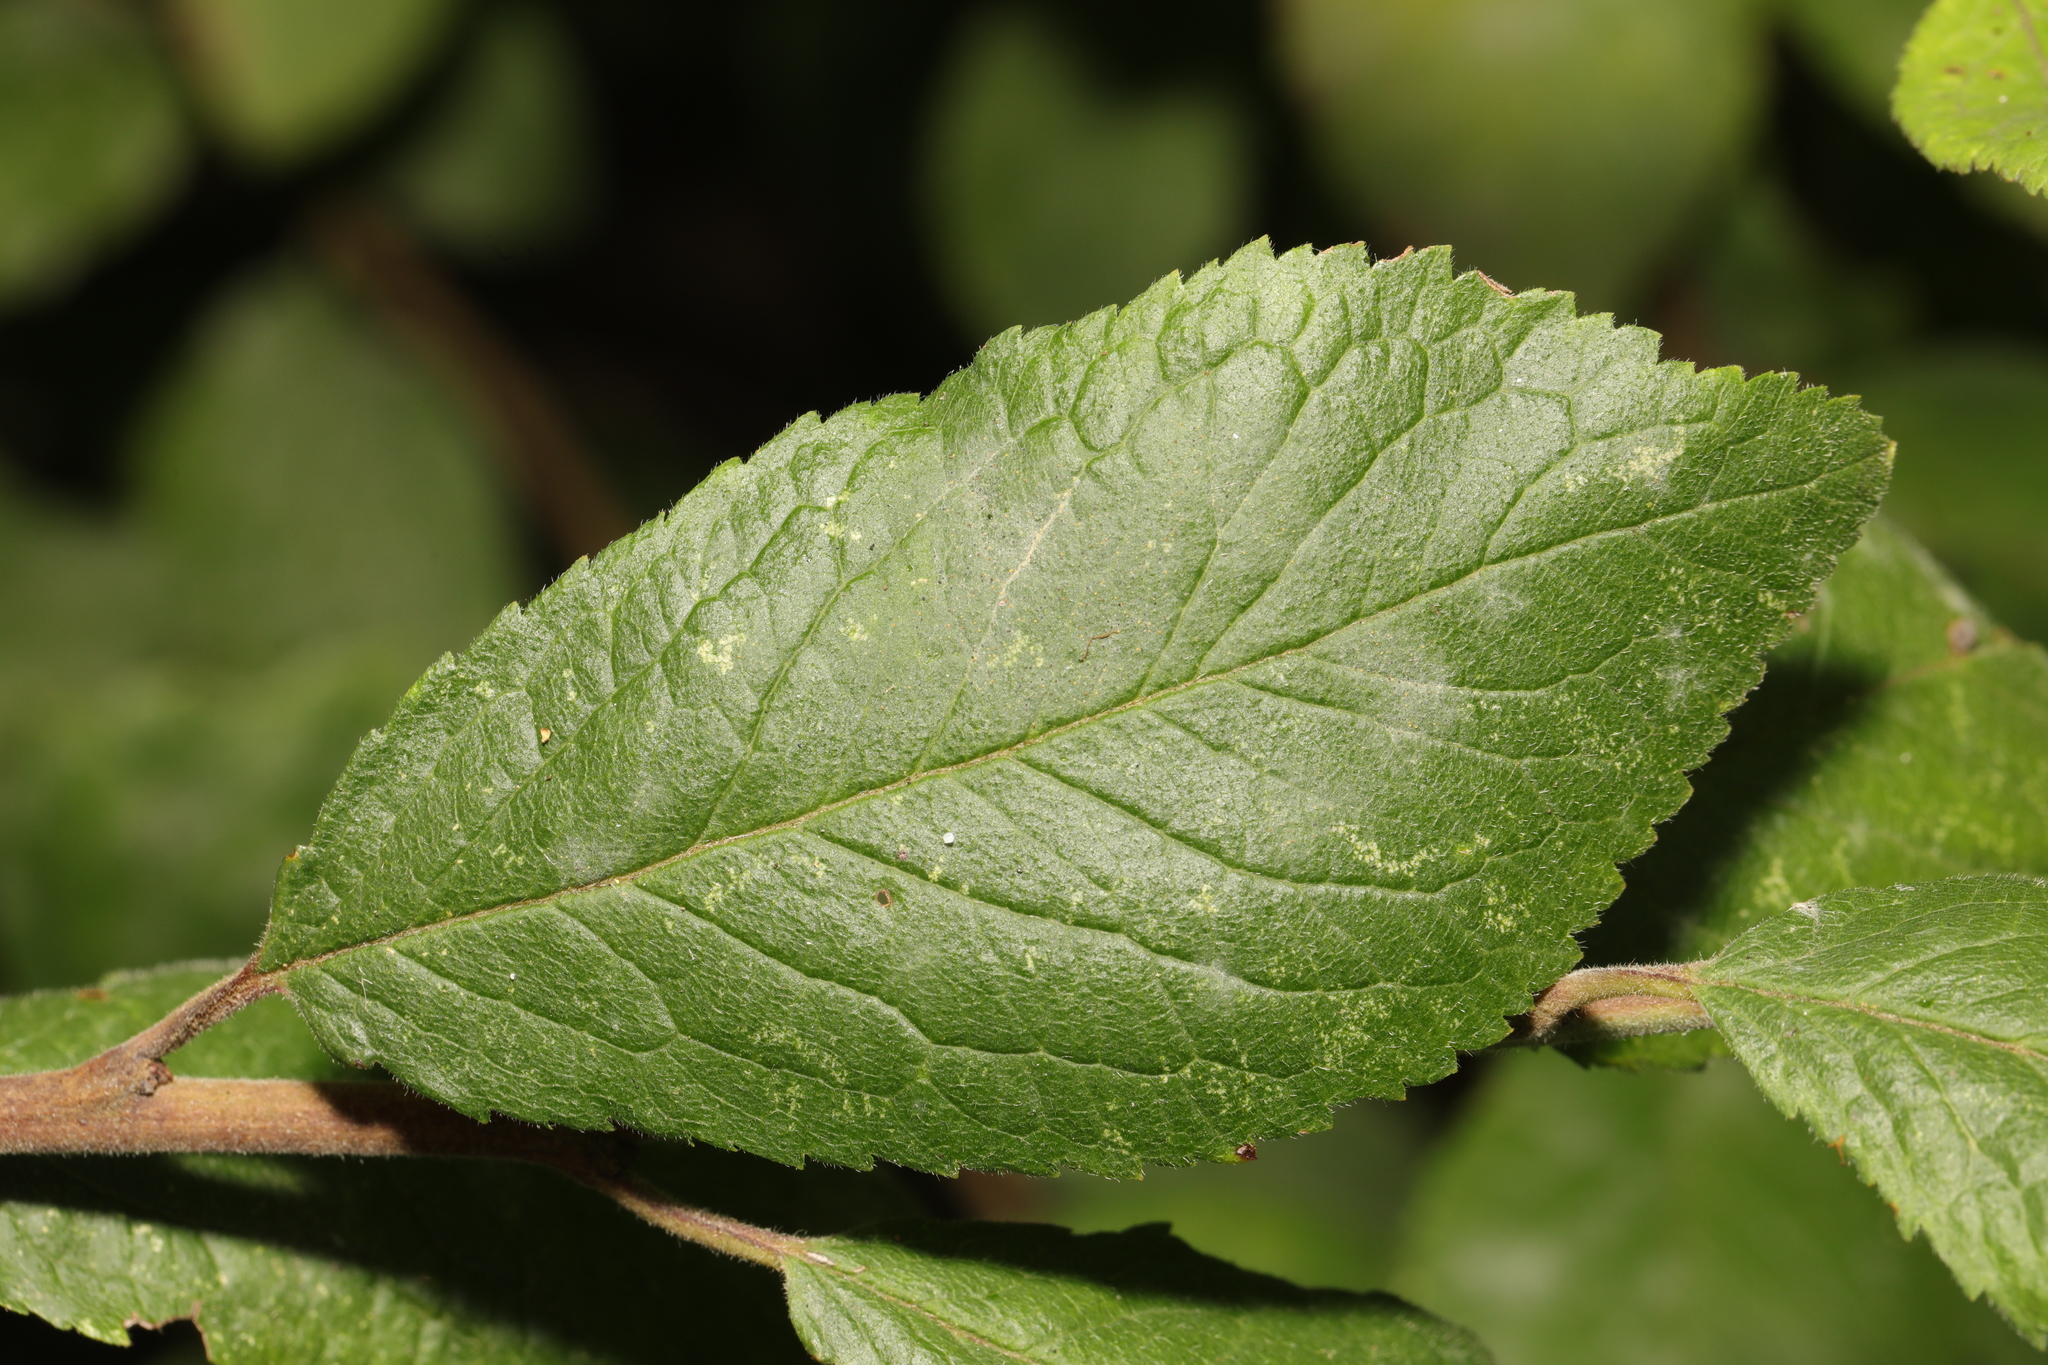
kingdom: Plantae
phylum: Tracheophyta
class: Magnoliopsida
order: Rosales
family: Rosaceae
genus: Prunus
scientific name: Prunus spinosa
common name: Blackthorn
